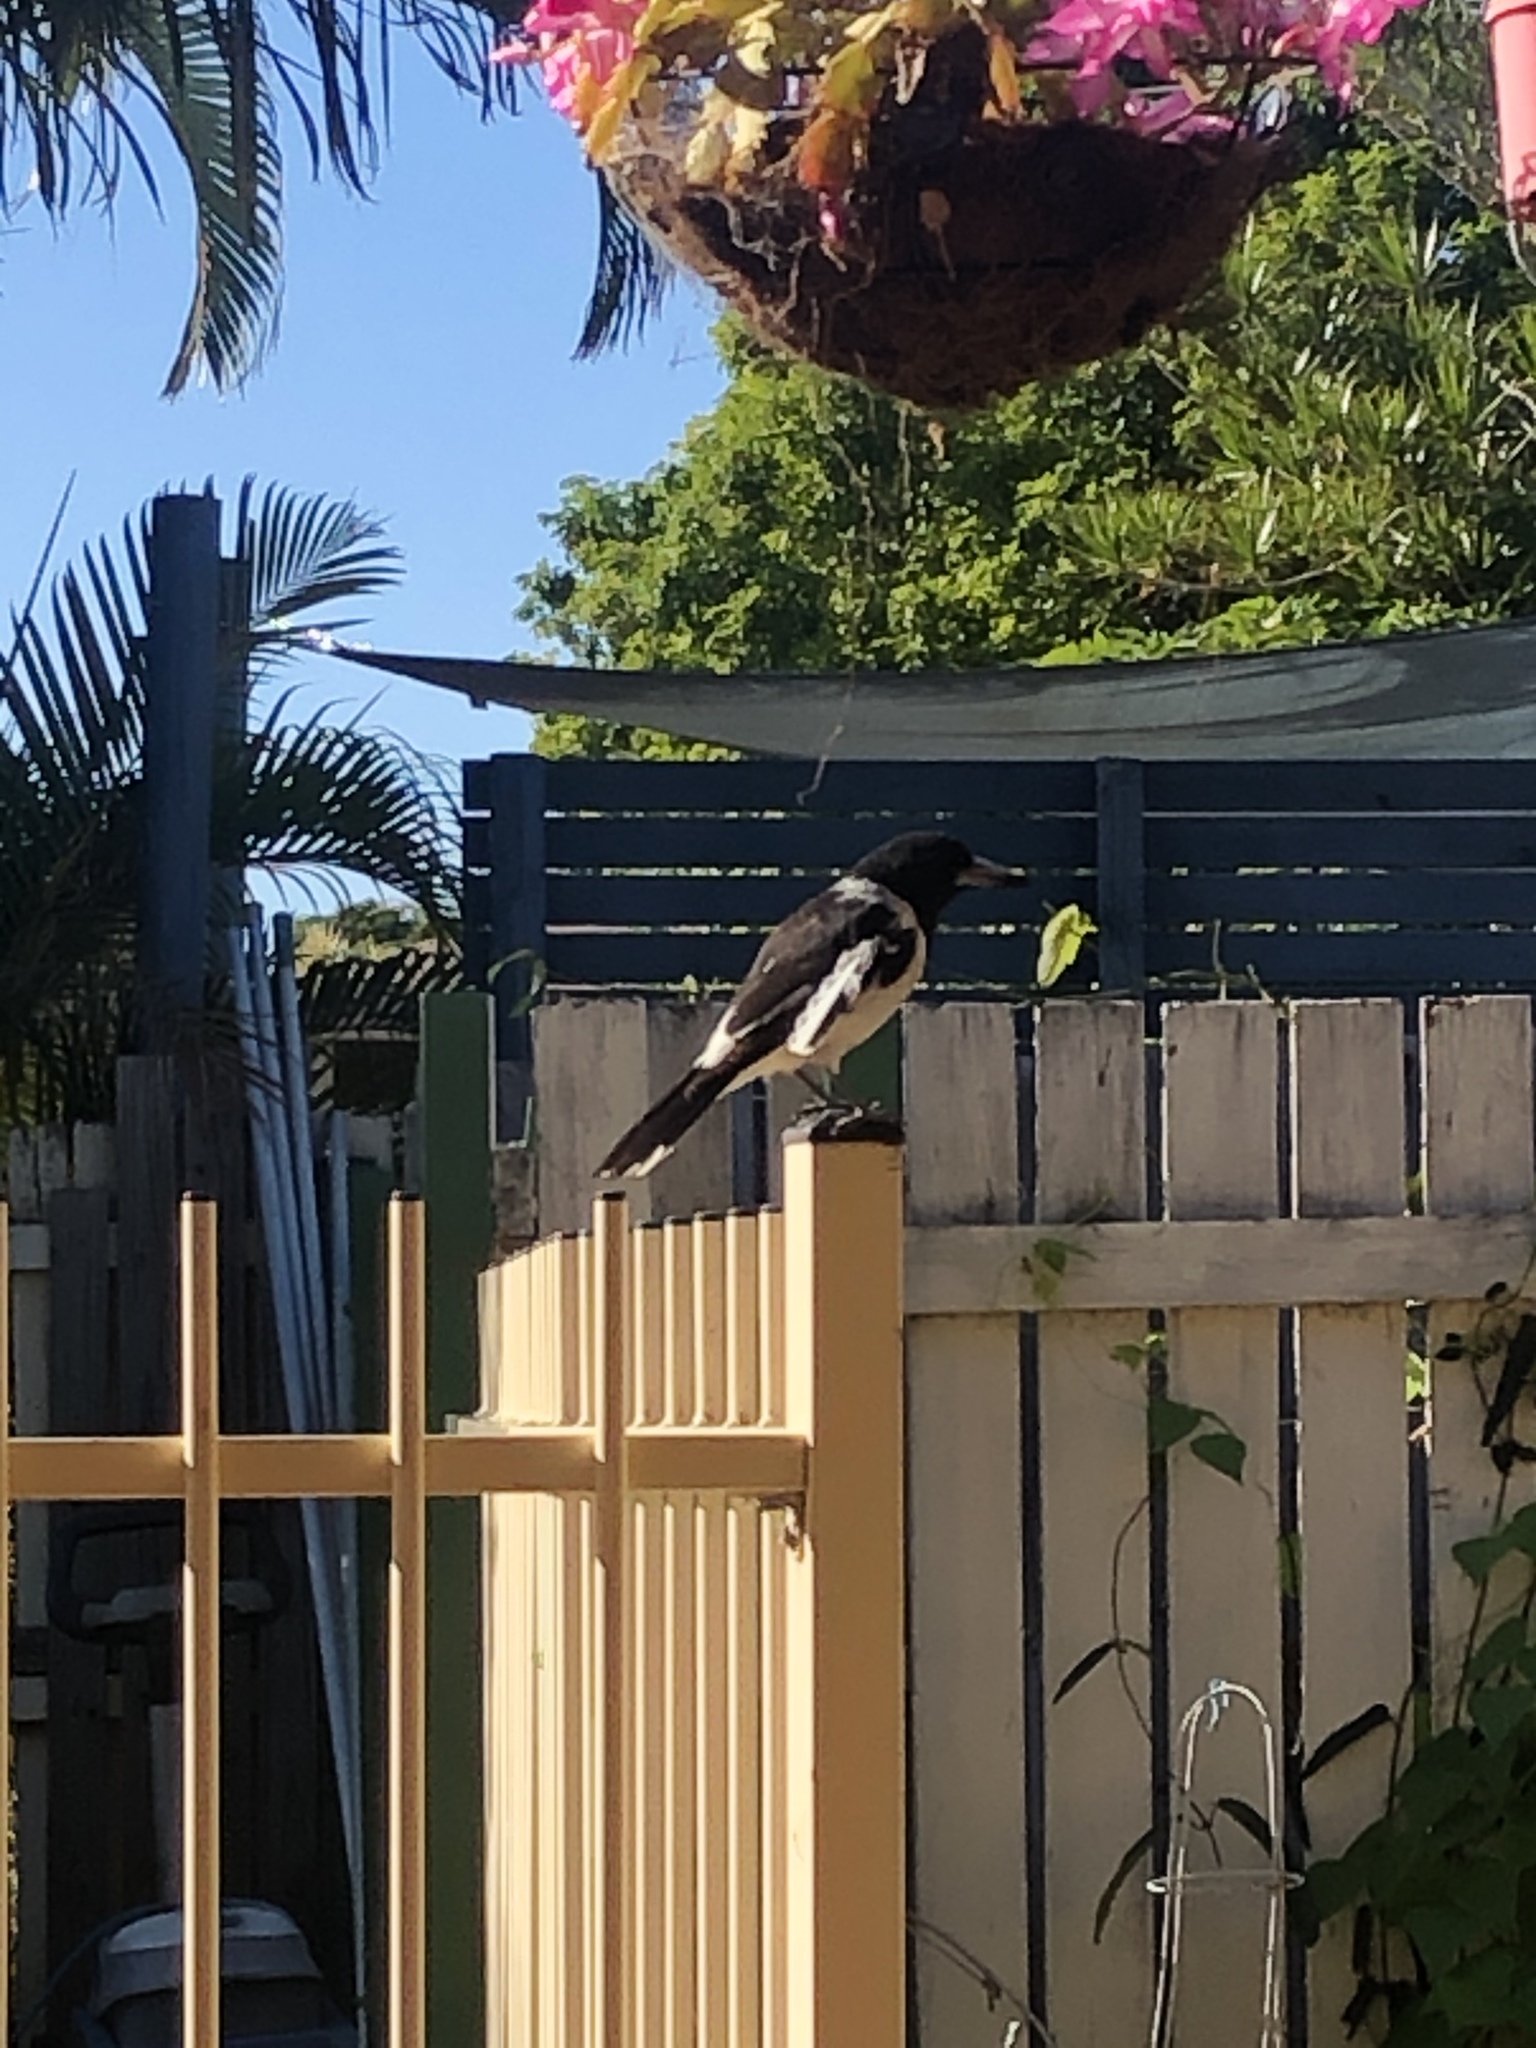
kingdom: Animalia
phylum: Chordata
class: Aves
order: Passeriformes
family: Cracticidae
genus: Cracticus
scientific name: Cracticus nigrogularis
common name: Pied butcherbird
